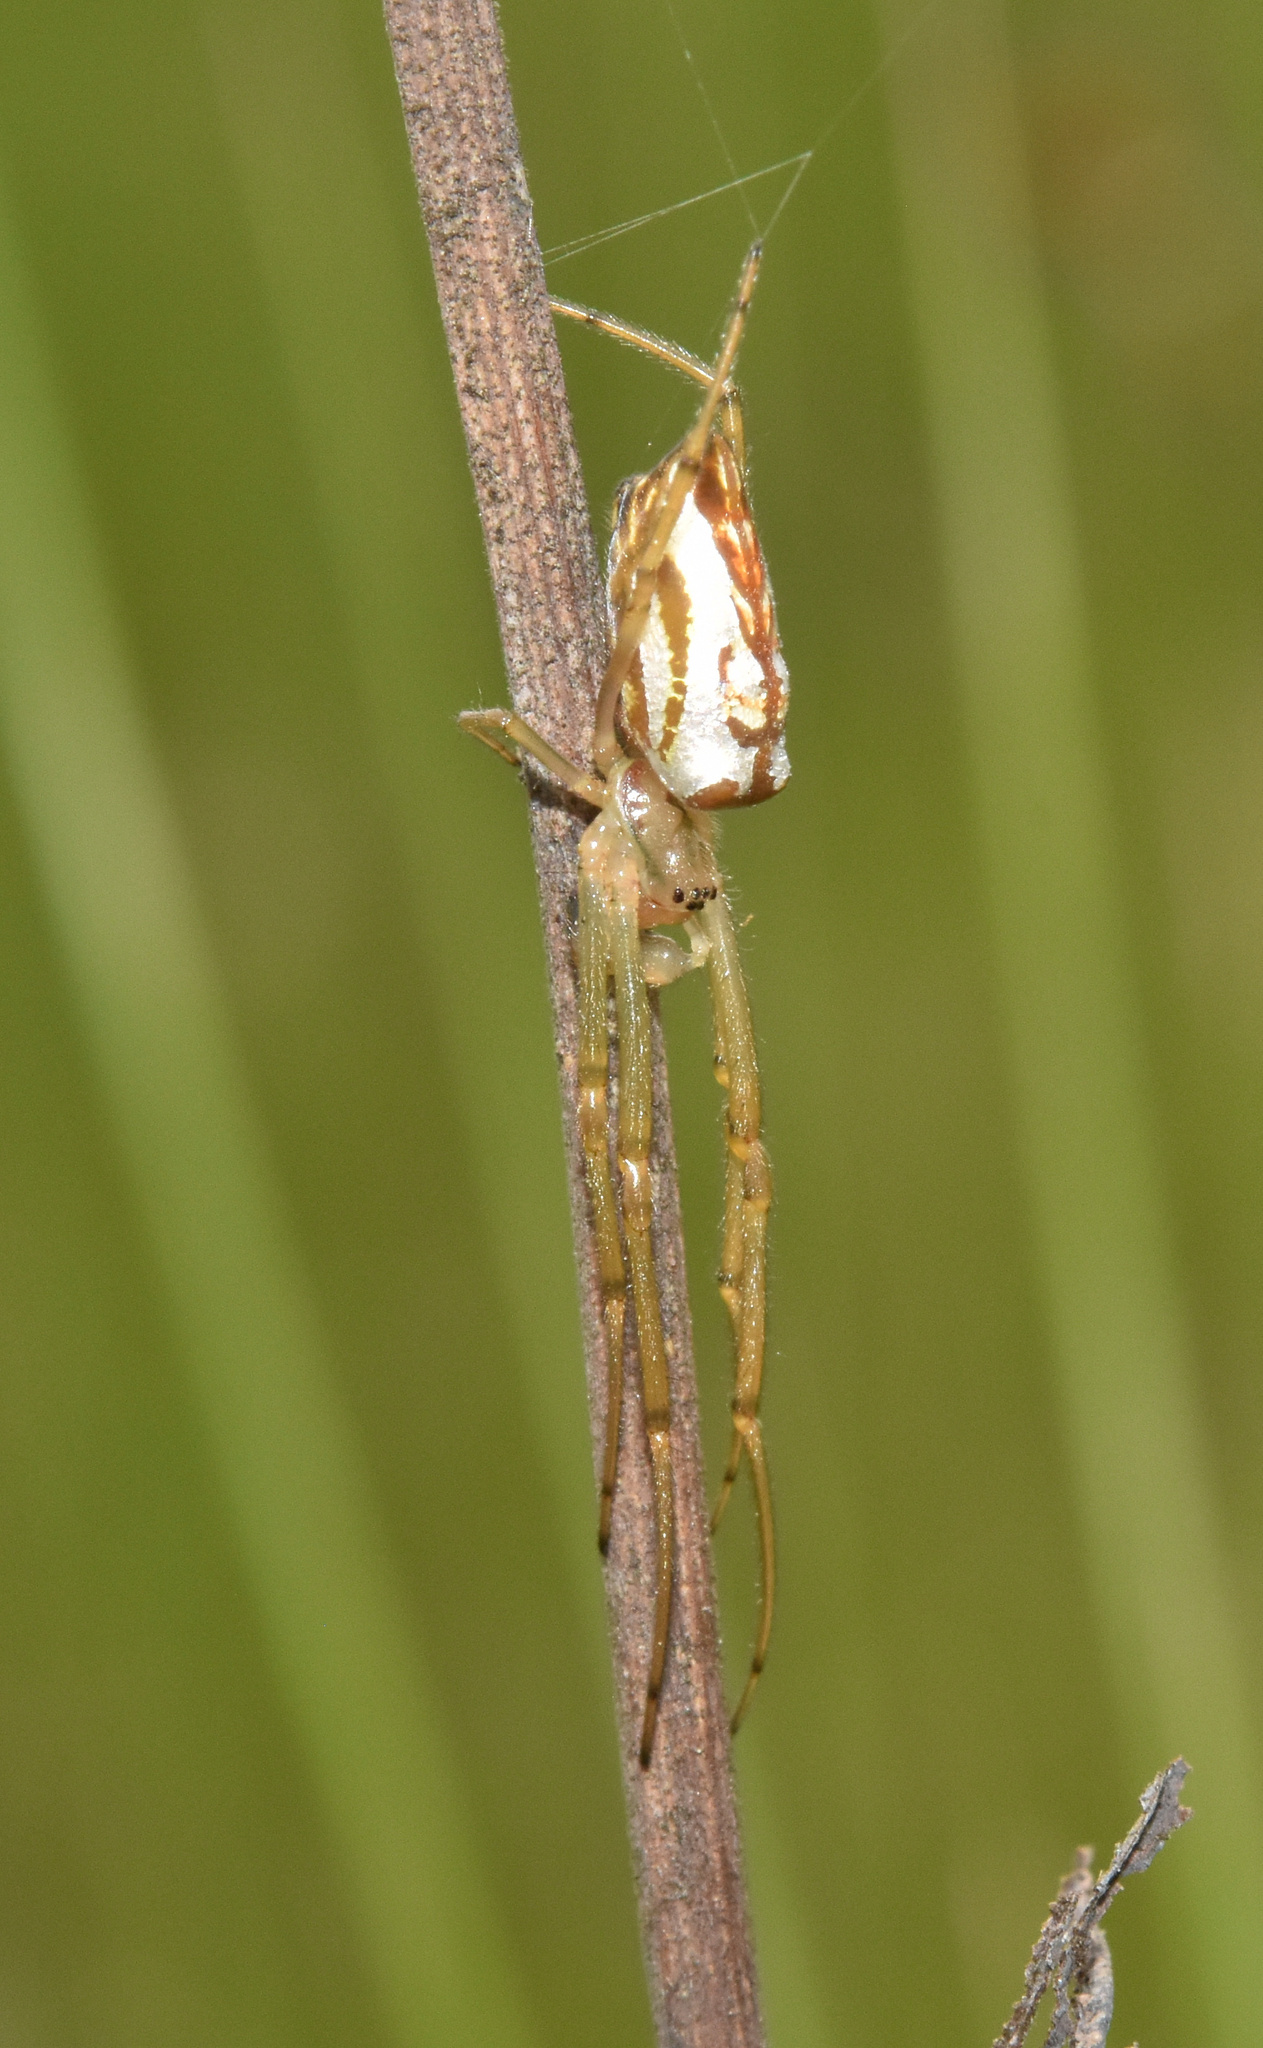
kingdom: Animalia
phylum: Arthropoda
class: Arachnida
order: Araneae
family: Tetragnathidae
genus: Leucauge
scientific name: Leucauge festiva
